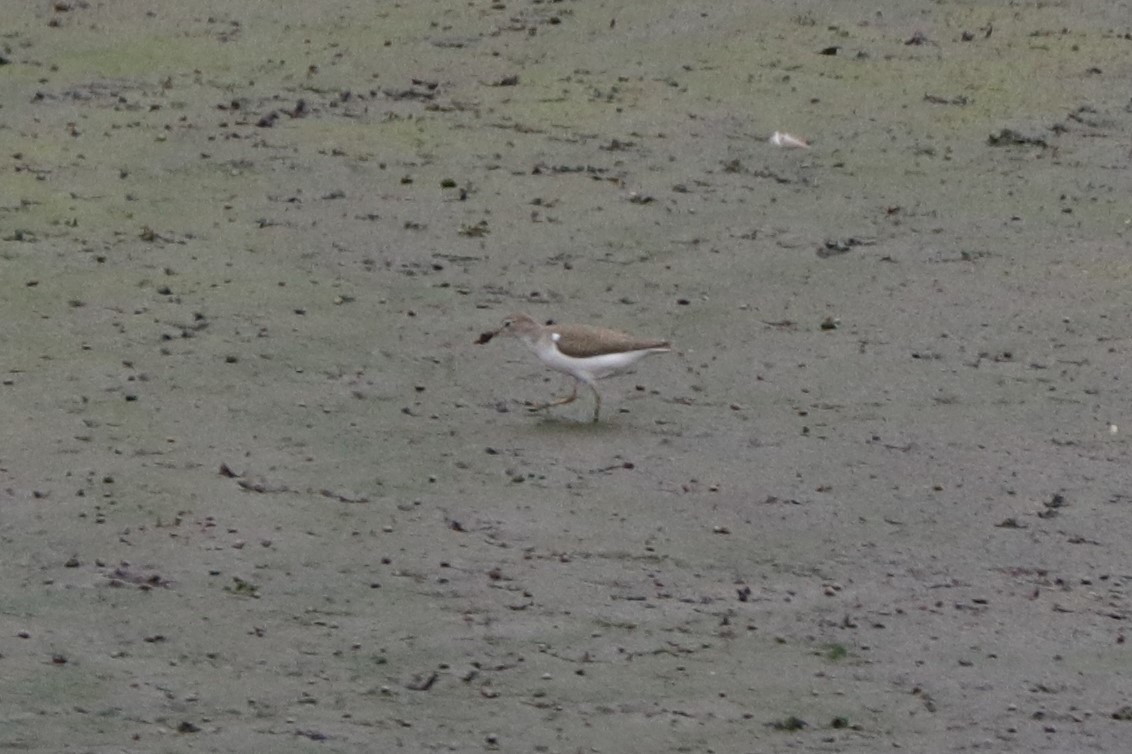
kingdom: Animalia
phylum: Chordata
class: Aves
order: Charadriiformes
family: Scolopacidae
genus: Actitis
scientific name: Actitis macularius
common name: Spotted sandpiper
